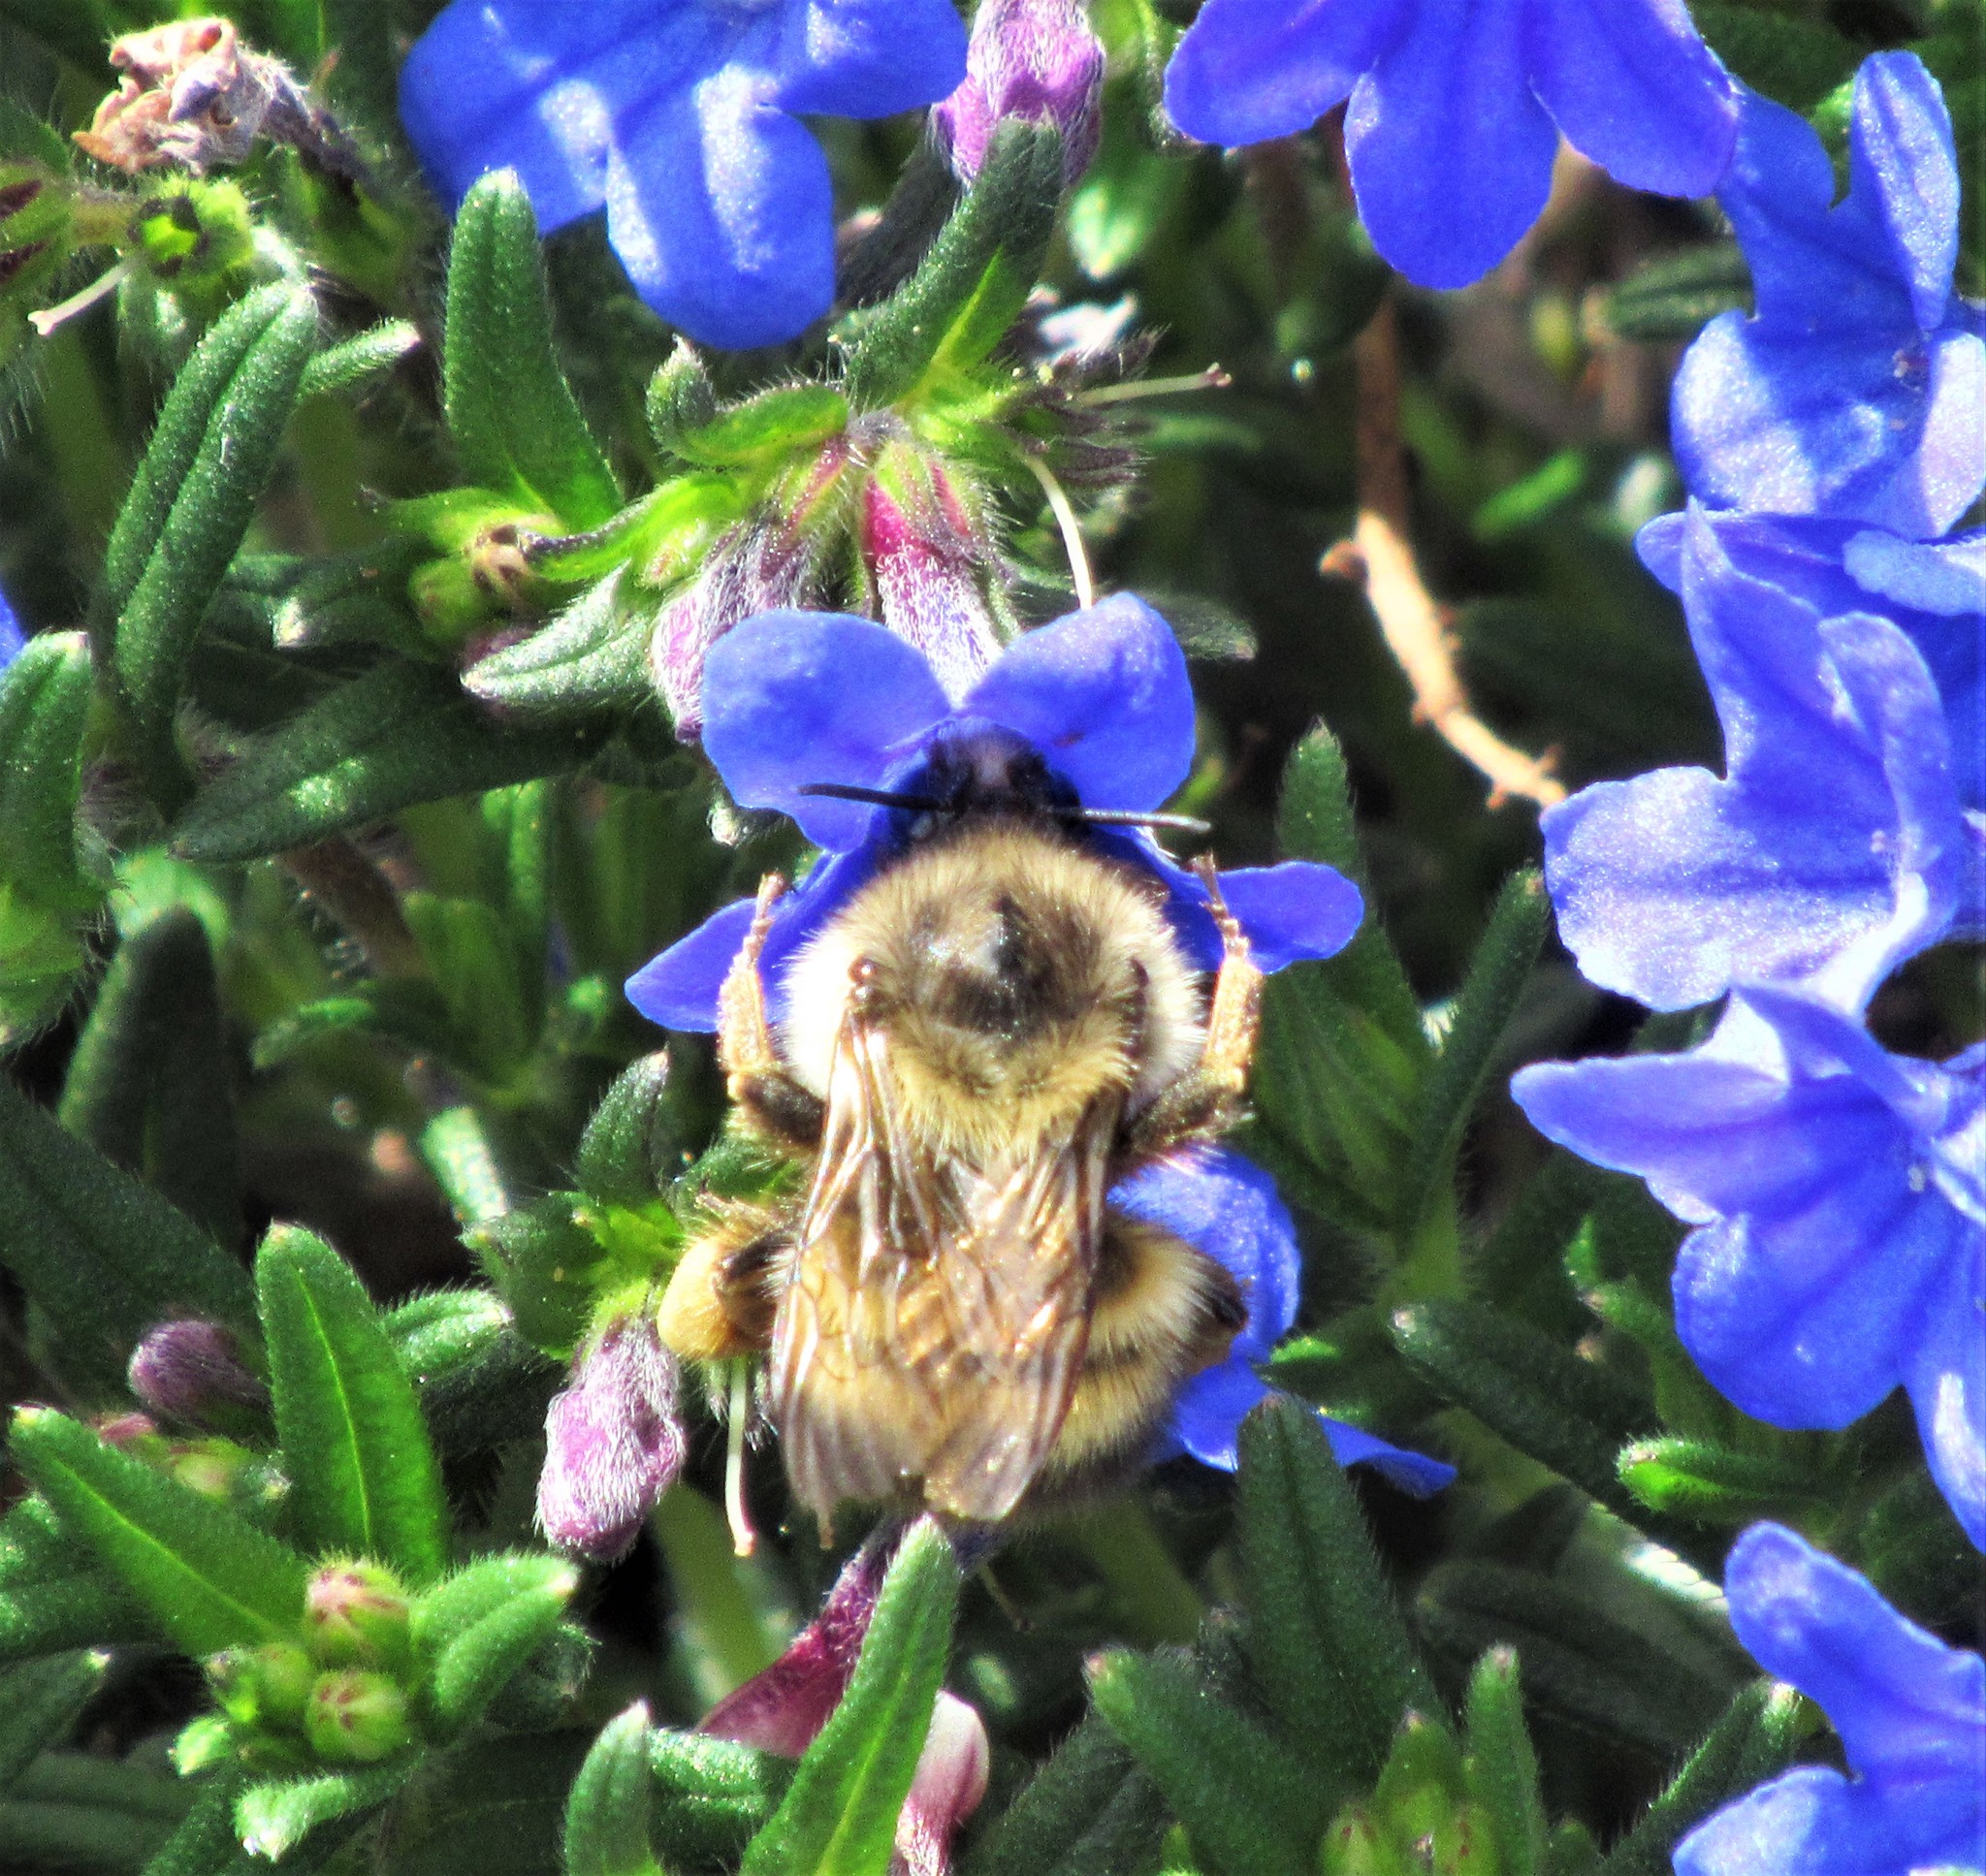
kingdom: Animalia
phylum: Arthropoda
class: Insecta
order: Hymenoptera
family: Apidae
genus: Bombus
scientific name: Bombus mixtus
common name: Fuzzy-horned bumble bee
